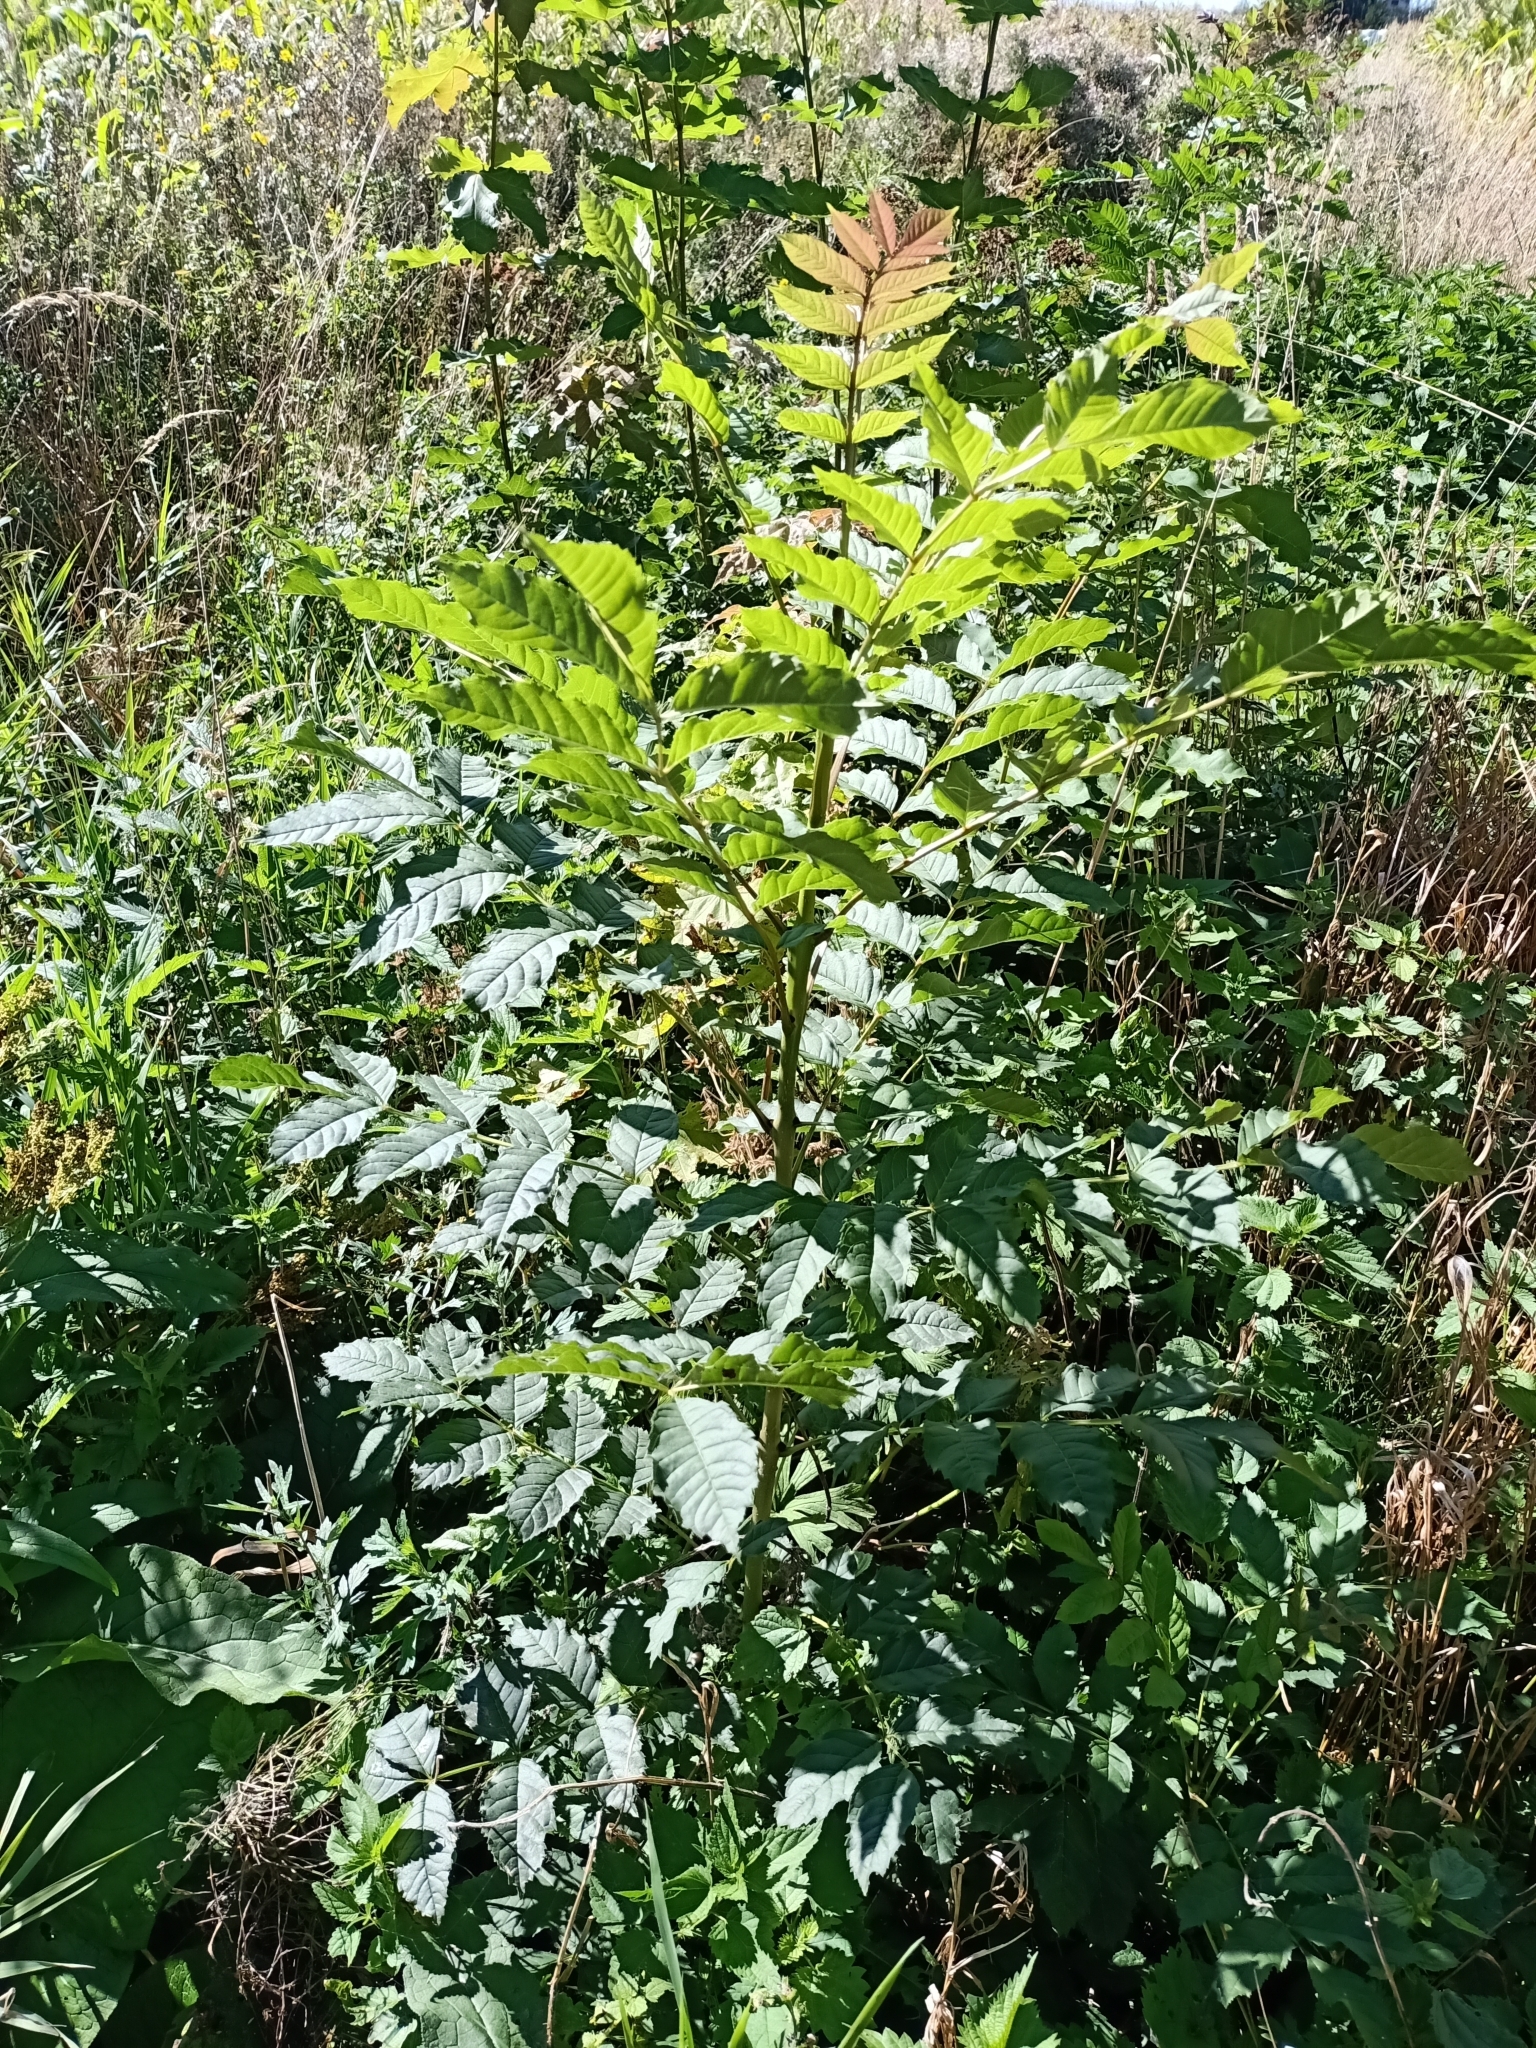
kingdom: Plantae
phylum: Tracheophyta
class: Magnoliopsida
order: Lamiales
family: Oleaceae
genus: Fraxinus
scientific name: Fraxinus excelsior
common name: European ash
